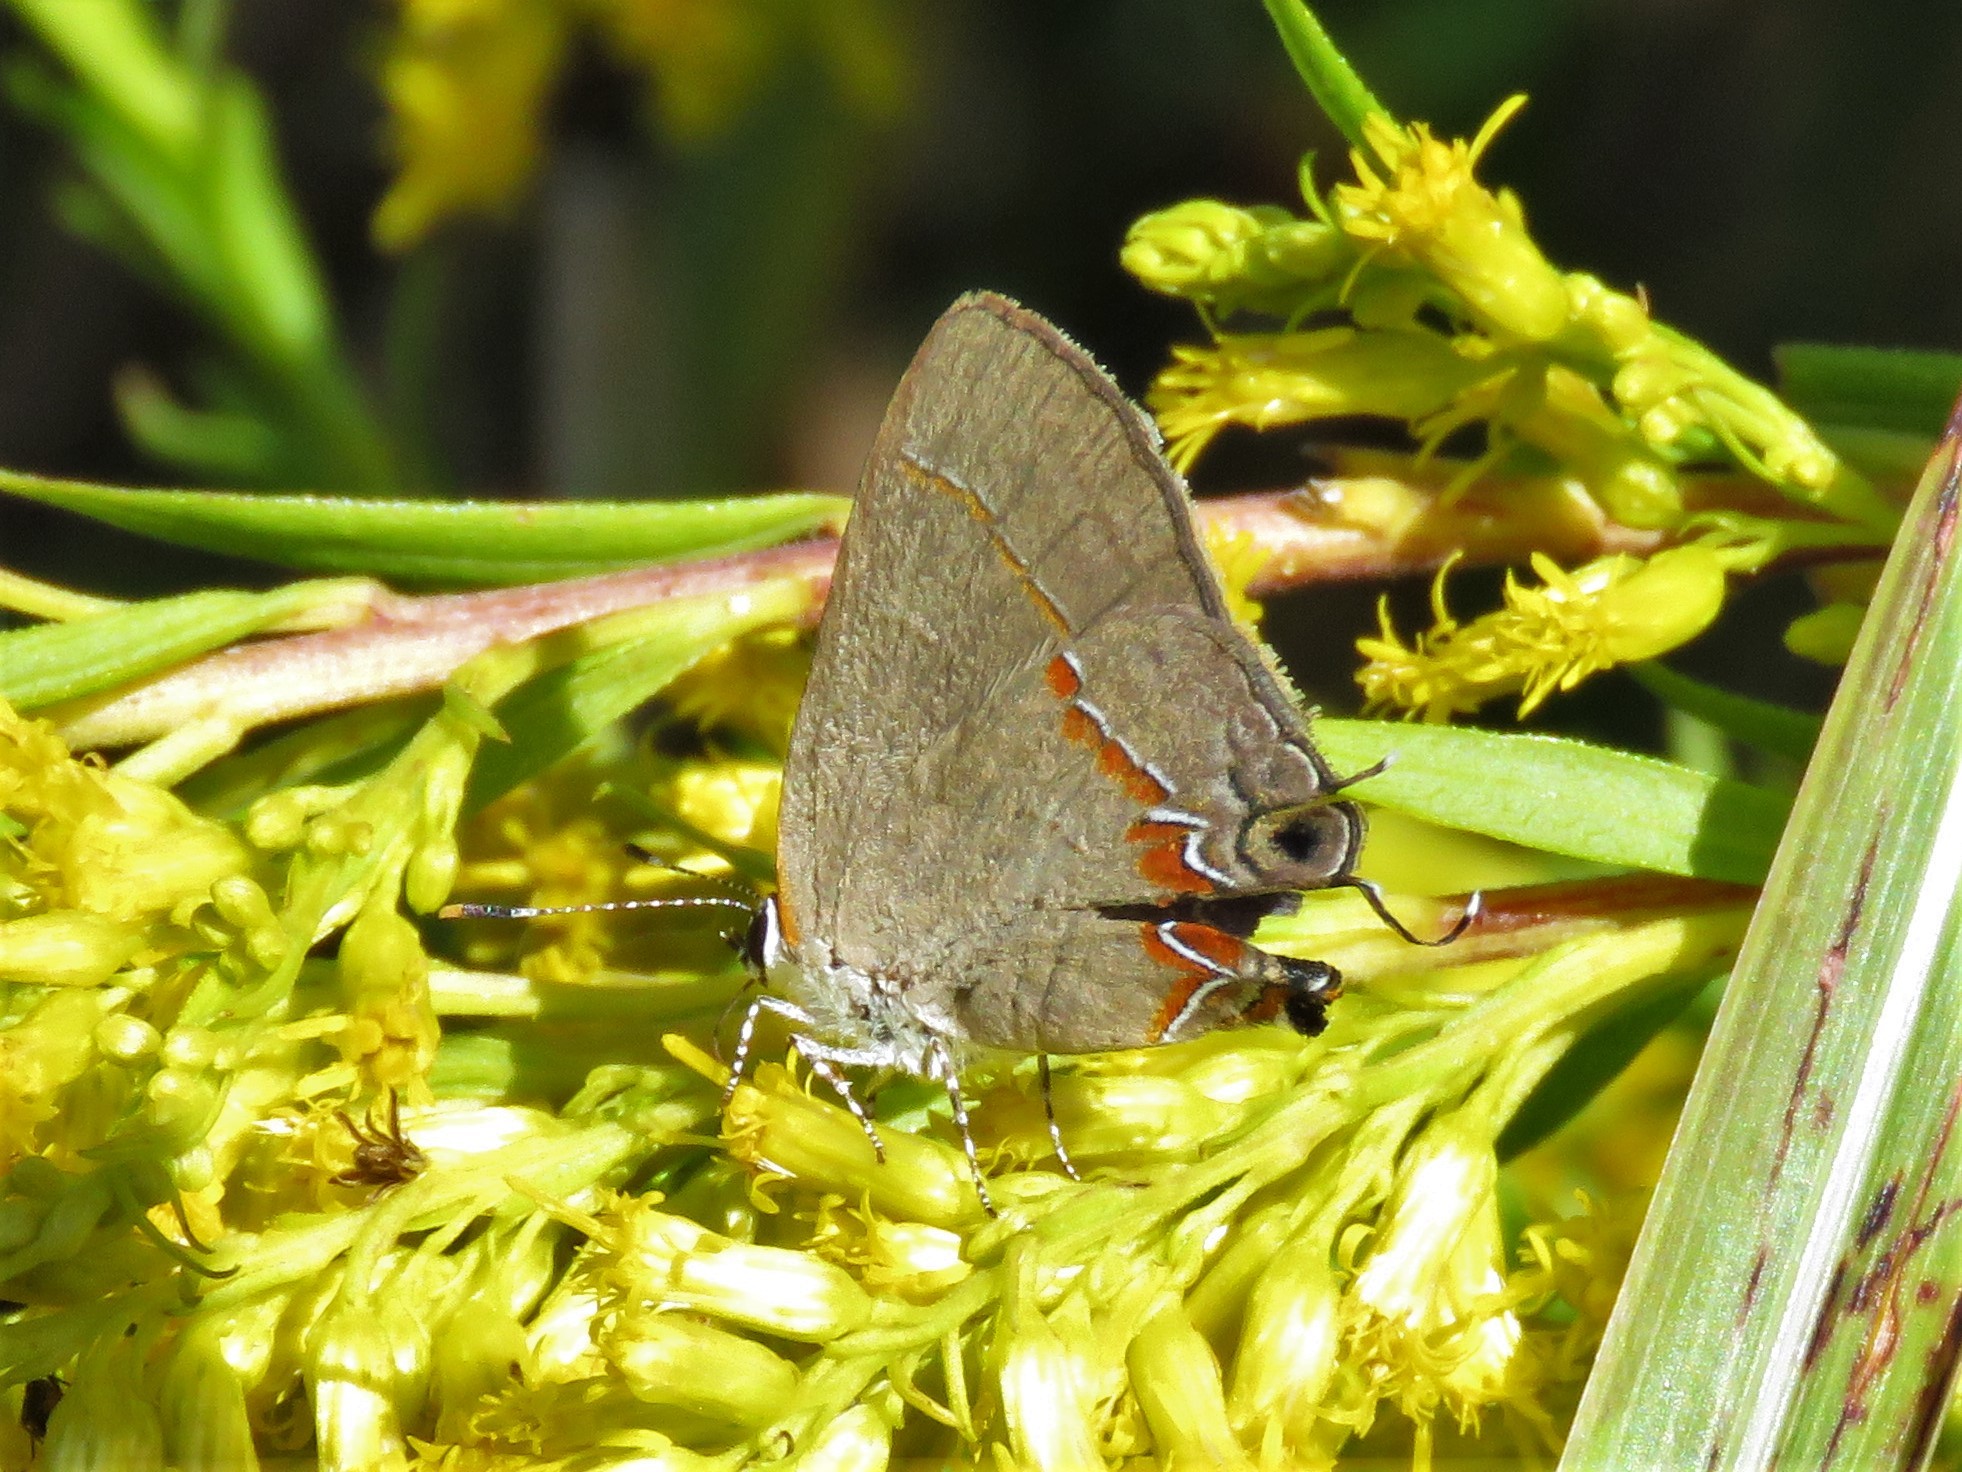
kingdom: Animalia
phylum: Arthropoda
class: Insecta
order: Lepidoptera
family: Lycaenidae
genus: Calycopis
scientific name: Calycopis cecrops
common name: Red-banded hairstreak
